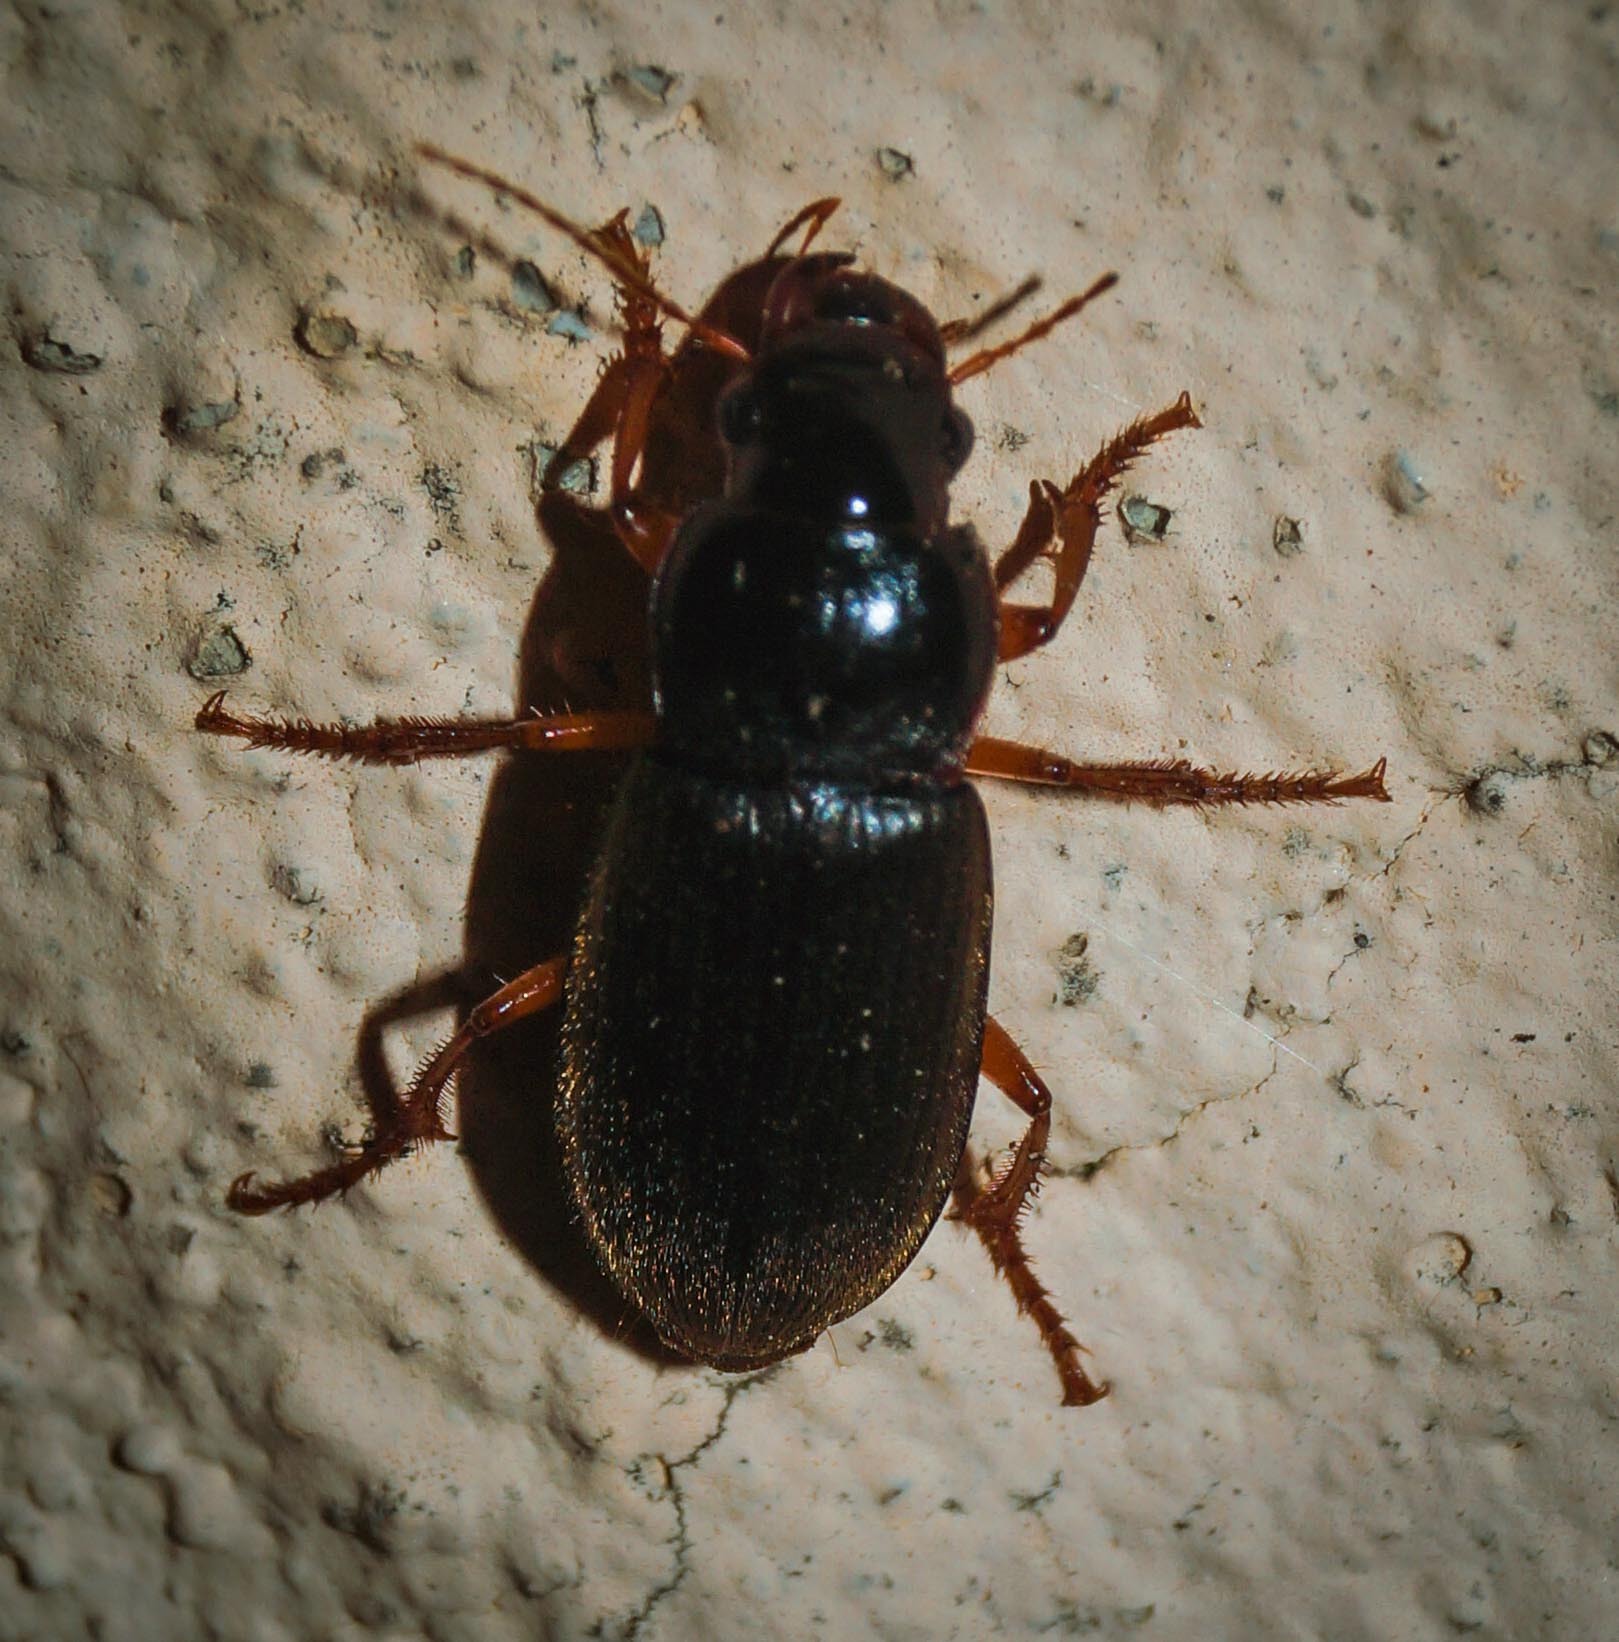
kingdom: Animalia
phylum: Arthropoda
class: Insecta
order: Coleoptera
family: Carabidae
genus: Harpalus
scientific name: Harpalus rufipes
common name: Strawberry harp ground beetle
